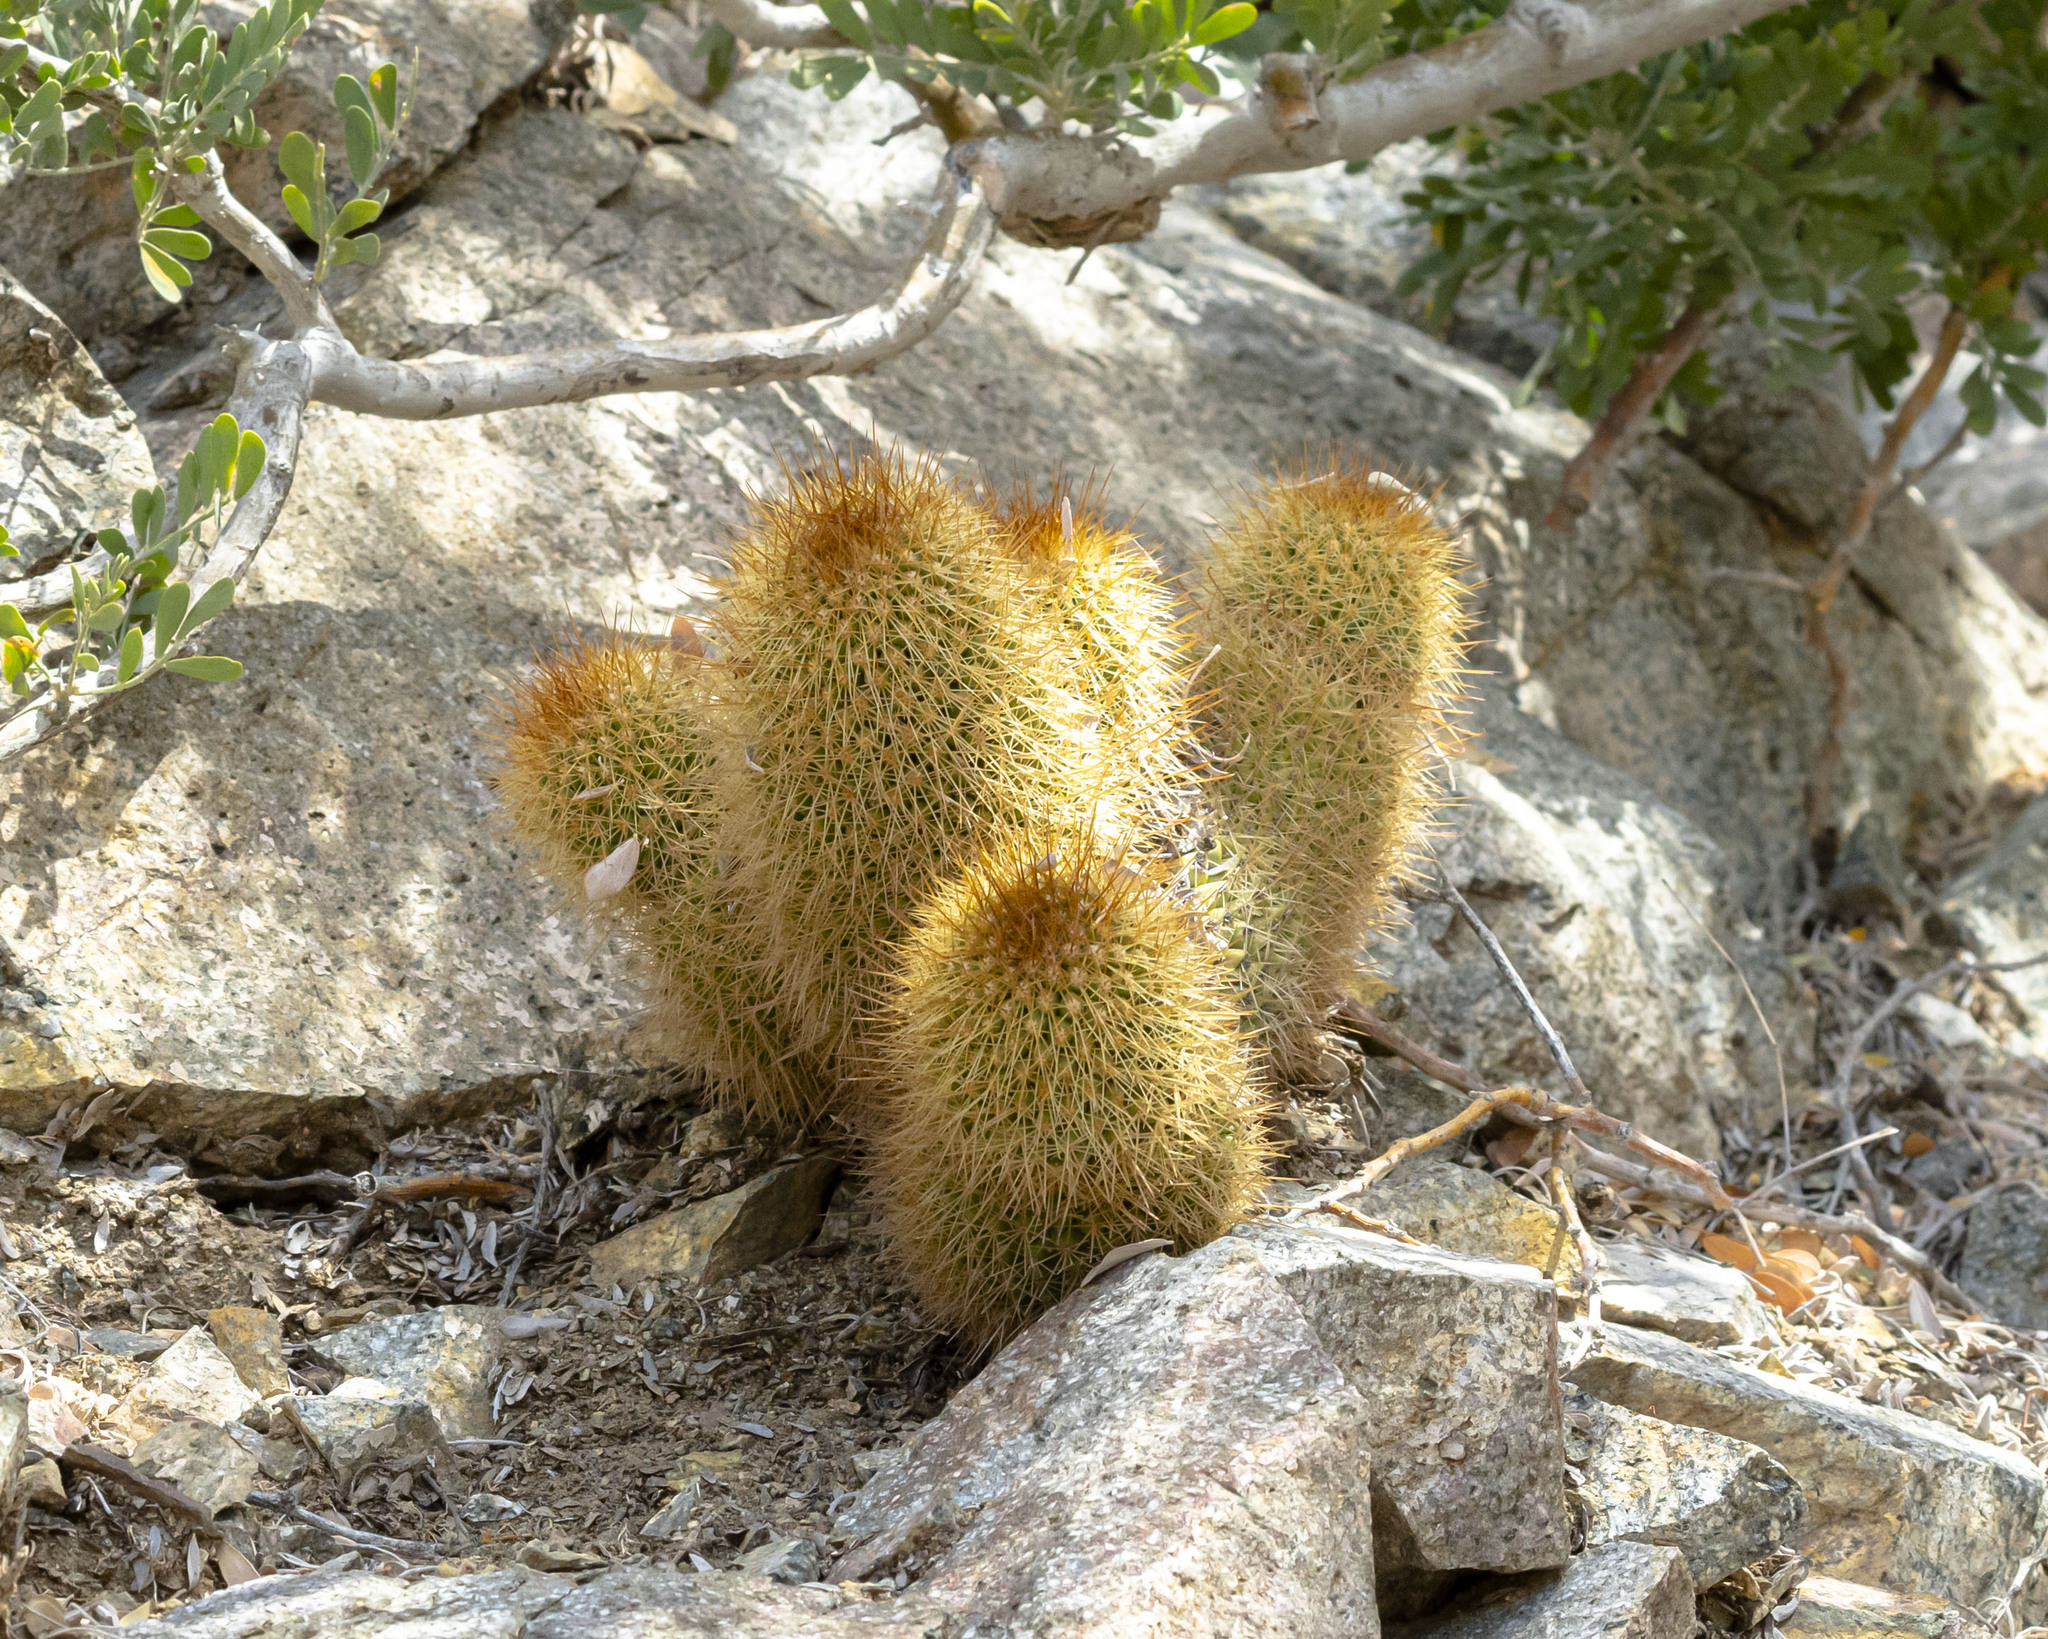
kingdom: Plantae
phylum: Tracheophyta
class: Magnoliopsida
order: Caryophyllales
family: Cactaceae
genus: Cochemiea
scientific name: Cochemiea cerralboa
